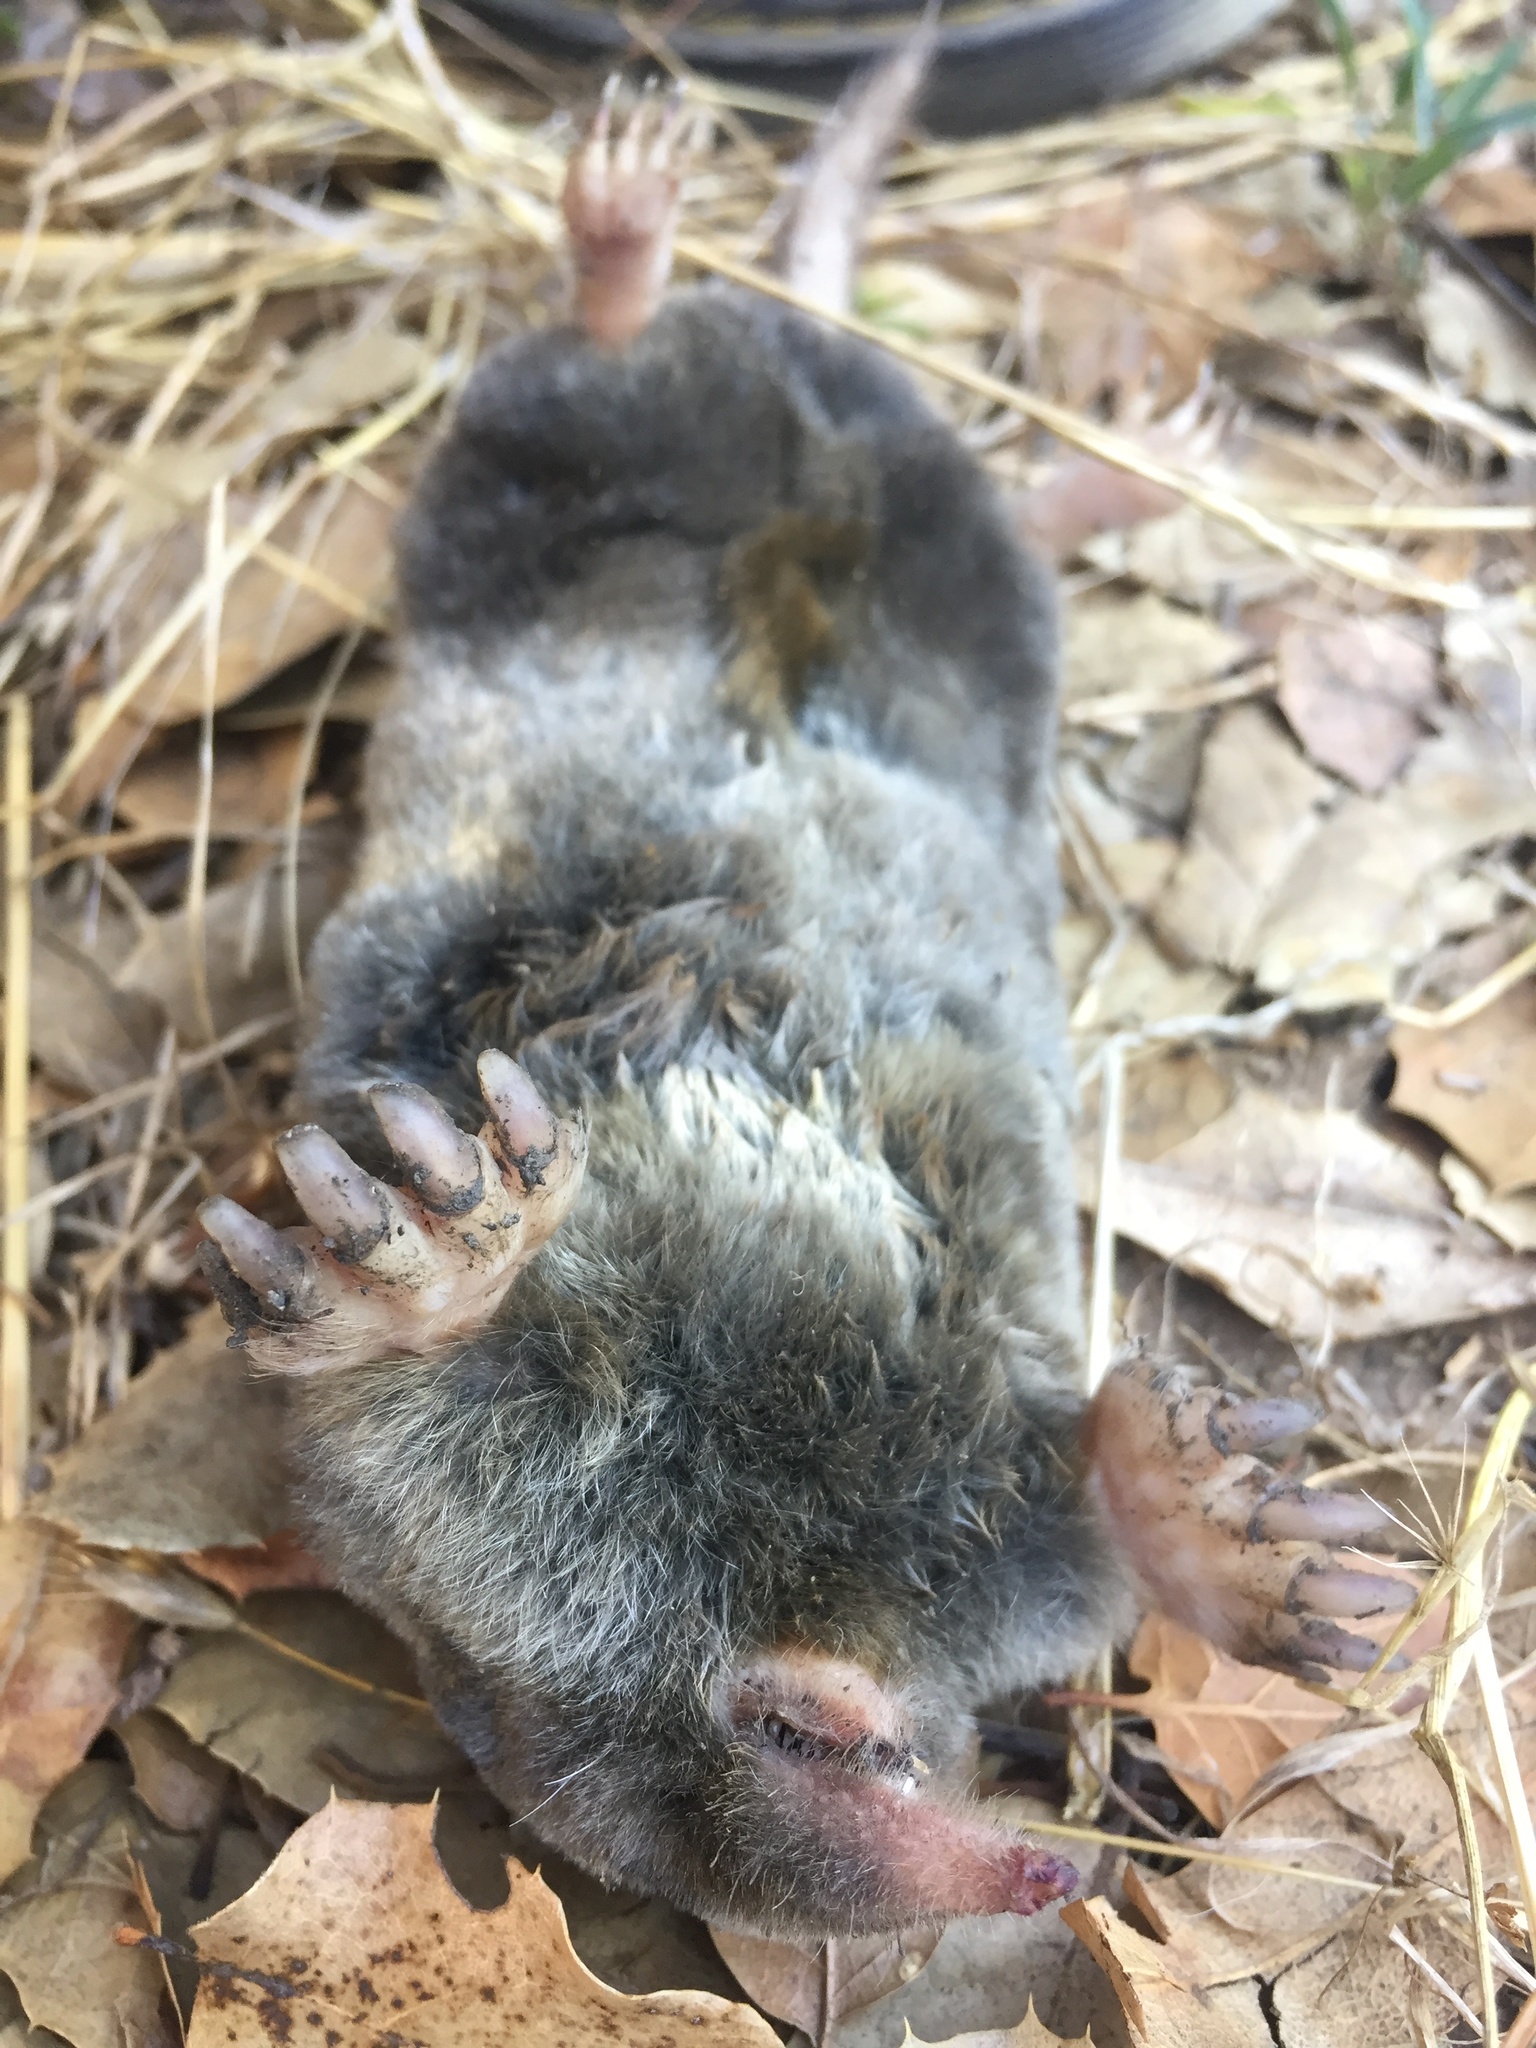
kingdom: Animalia
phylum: Chordata
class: Mammalia
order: Soricomorpha
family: Talpidae
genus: Scapanus
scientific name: Scapanus latimanus
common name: Broad-footed mole
